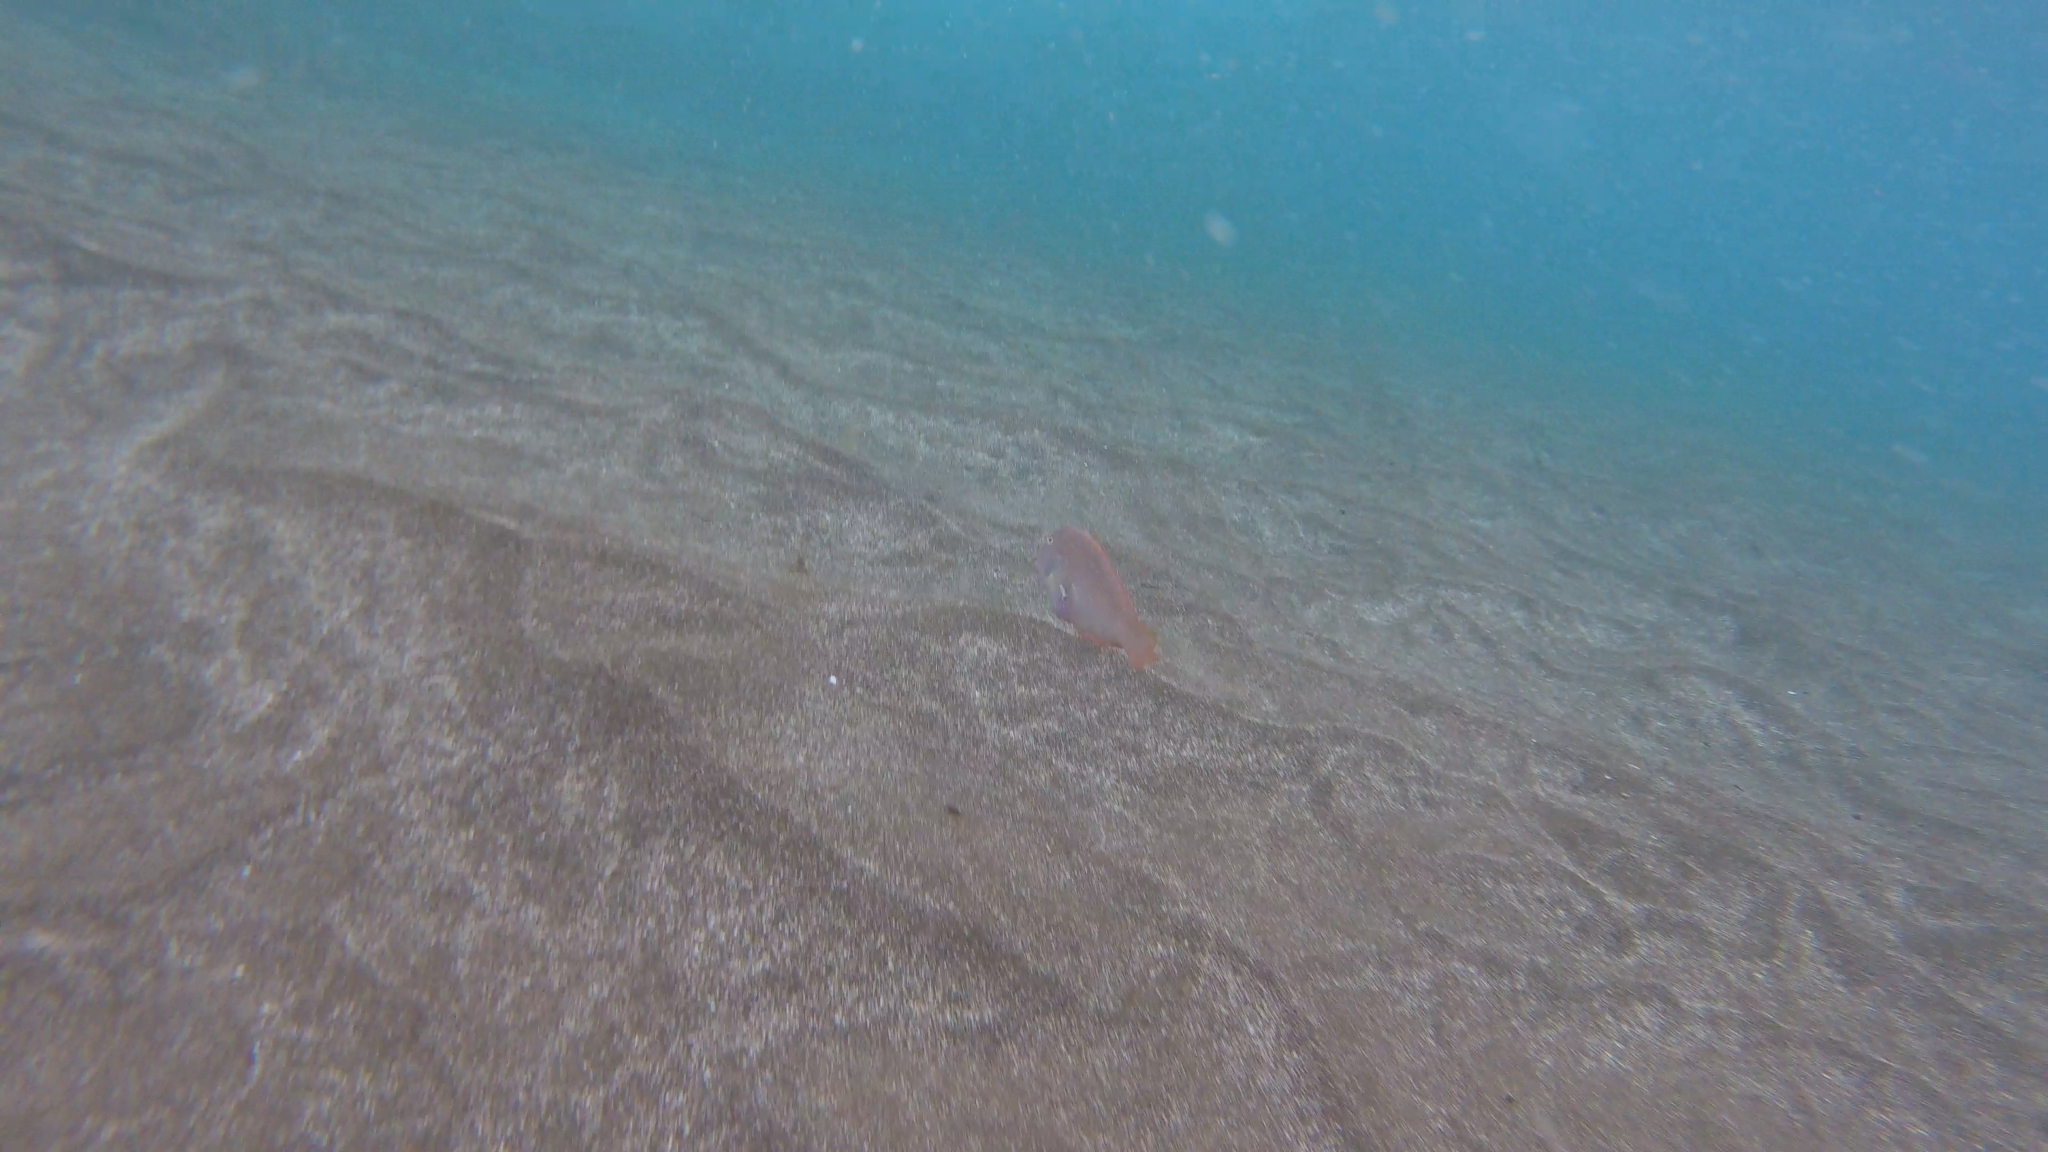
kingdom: Animalia
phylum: Chordata
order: Perciformes
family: Labridae
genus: Xyrichtys
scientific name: Xyrichtys novacula
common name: Pearly razorfish
